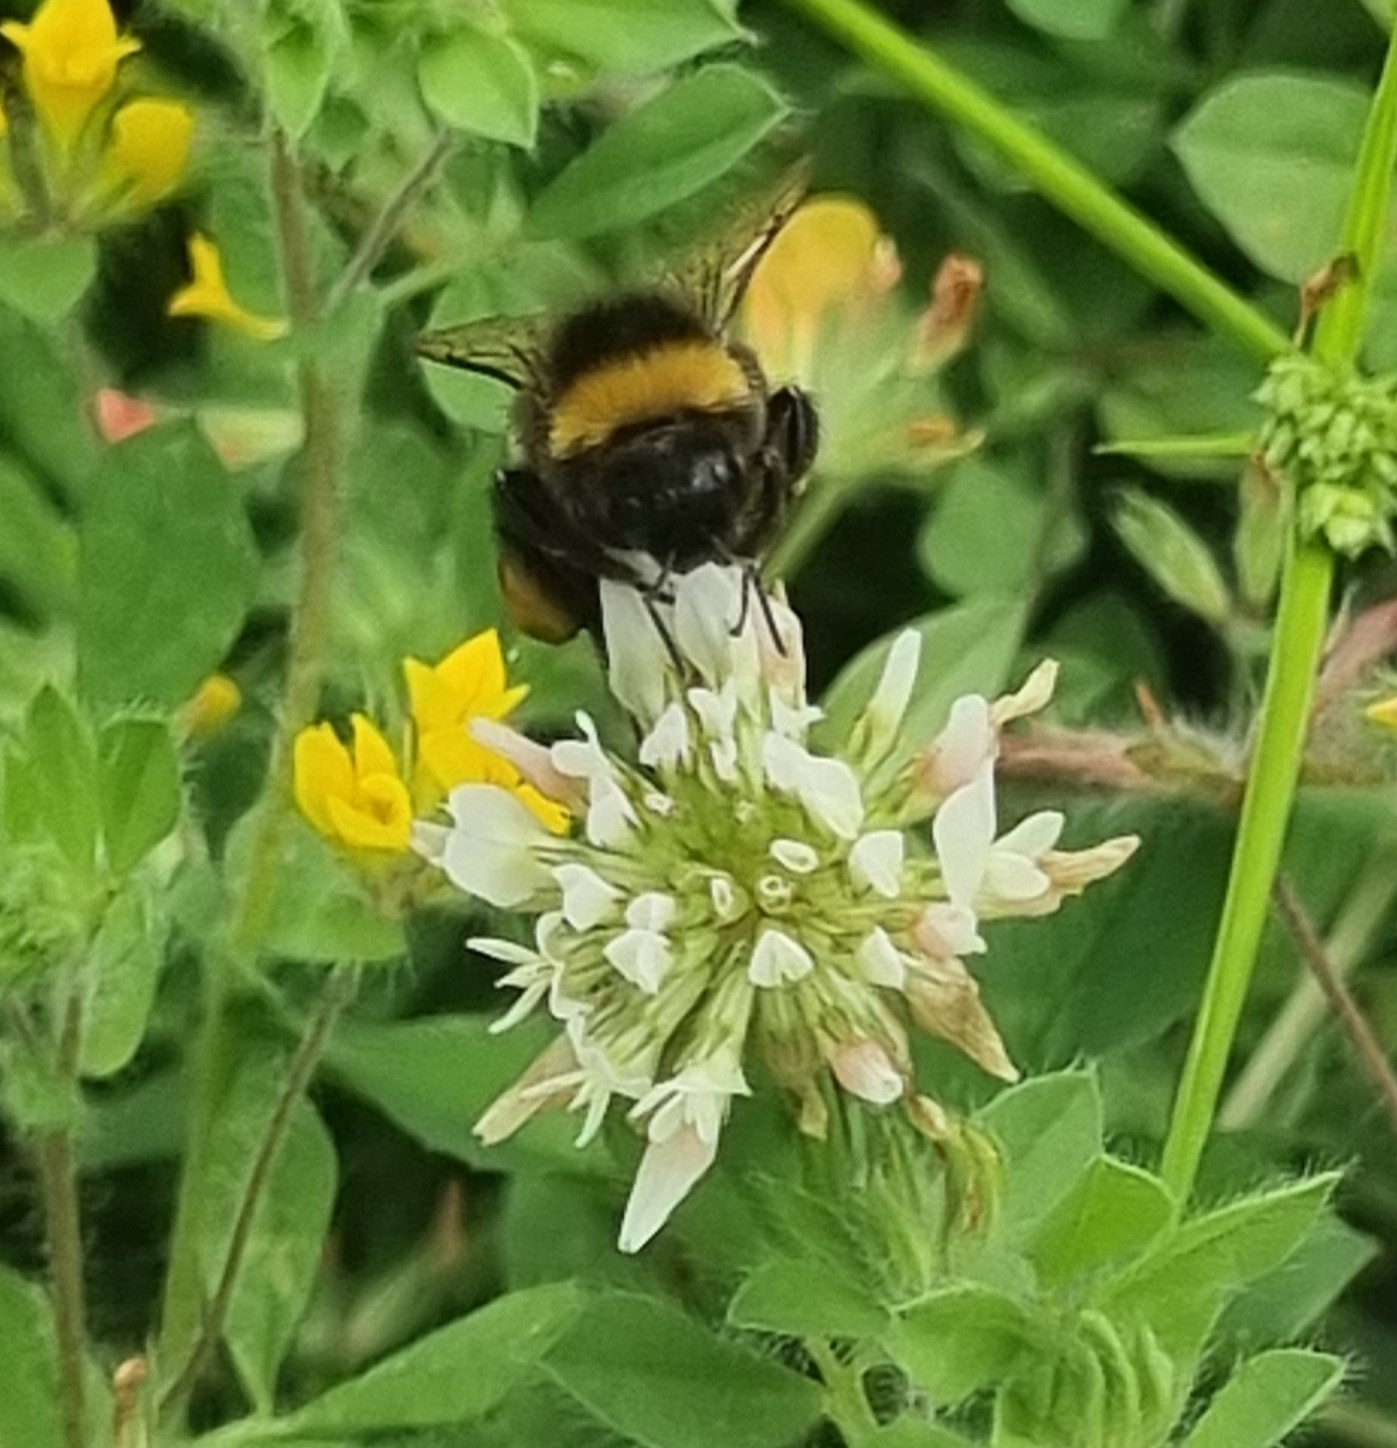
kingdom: Animalia
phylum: Arthropoda
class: Insecta
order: Hymenoptera
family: Apidae
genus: Bombus
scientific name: Bombus terrestris
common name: Buff-tailed bumblebee
